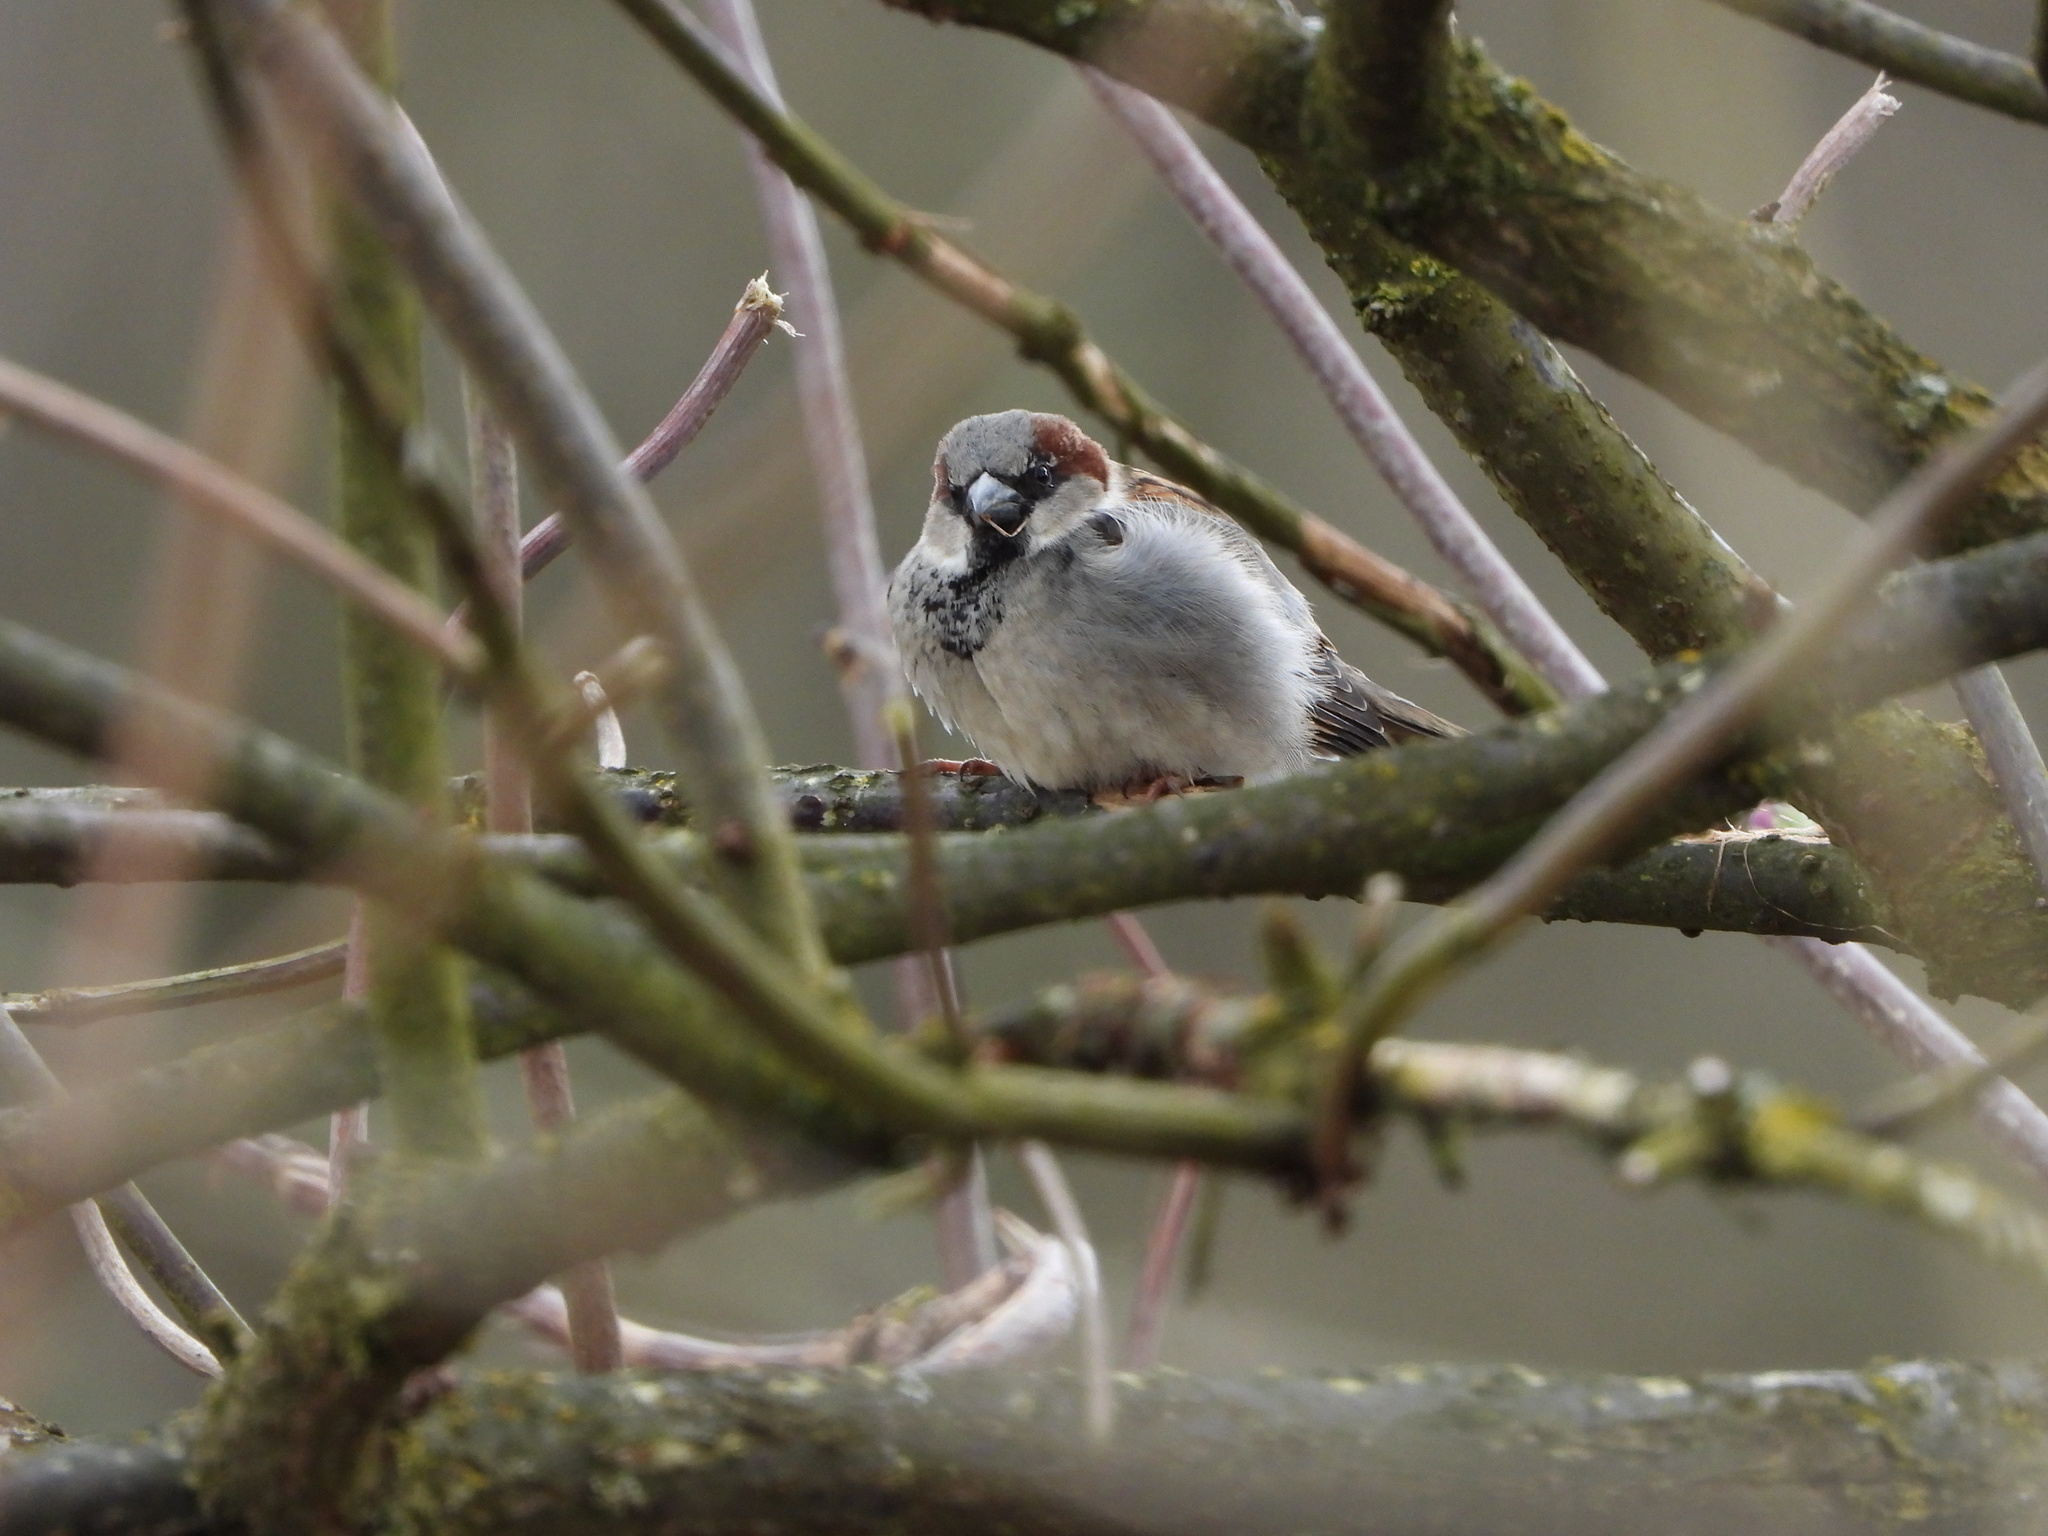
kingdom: Animalia
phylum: Chordata
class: Aves
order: Passeriformes
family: Passeridae
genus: Passer
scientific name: Passer domesticus
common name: House sparrow
